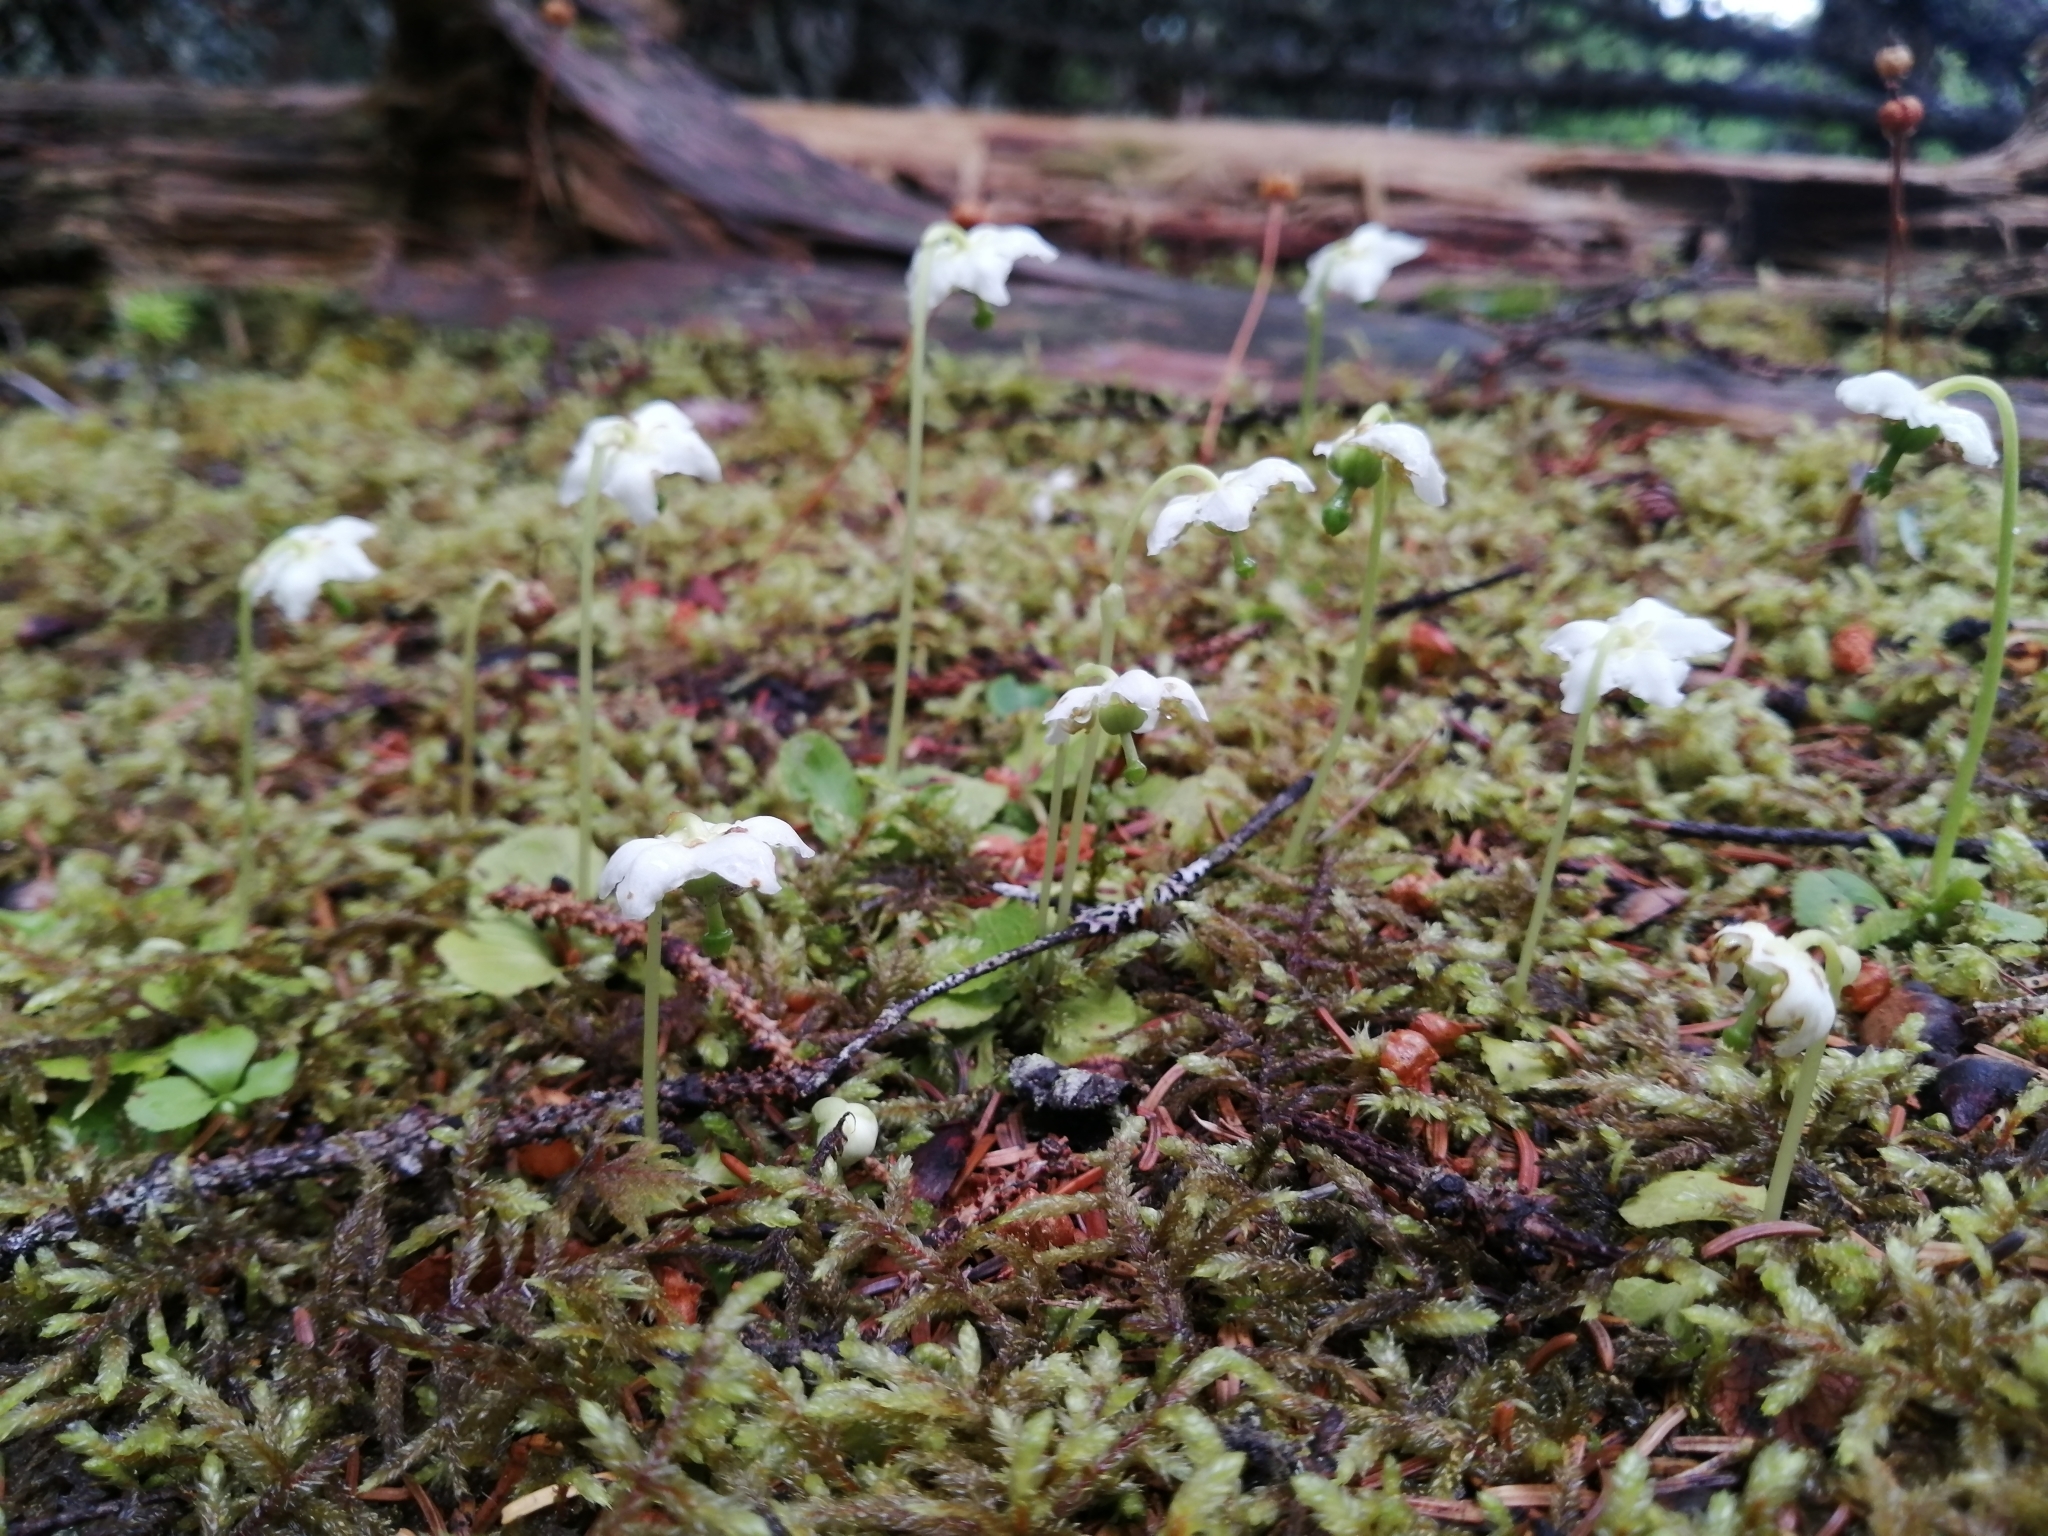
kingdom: Plantae
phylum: Tracheophyta
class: Magnoliopsida
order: Ericales
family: Ericaceae
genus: Moneses
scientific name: Moneses uniflora
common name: One-flowered wintergreen
